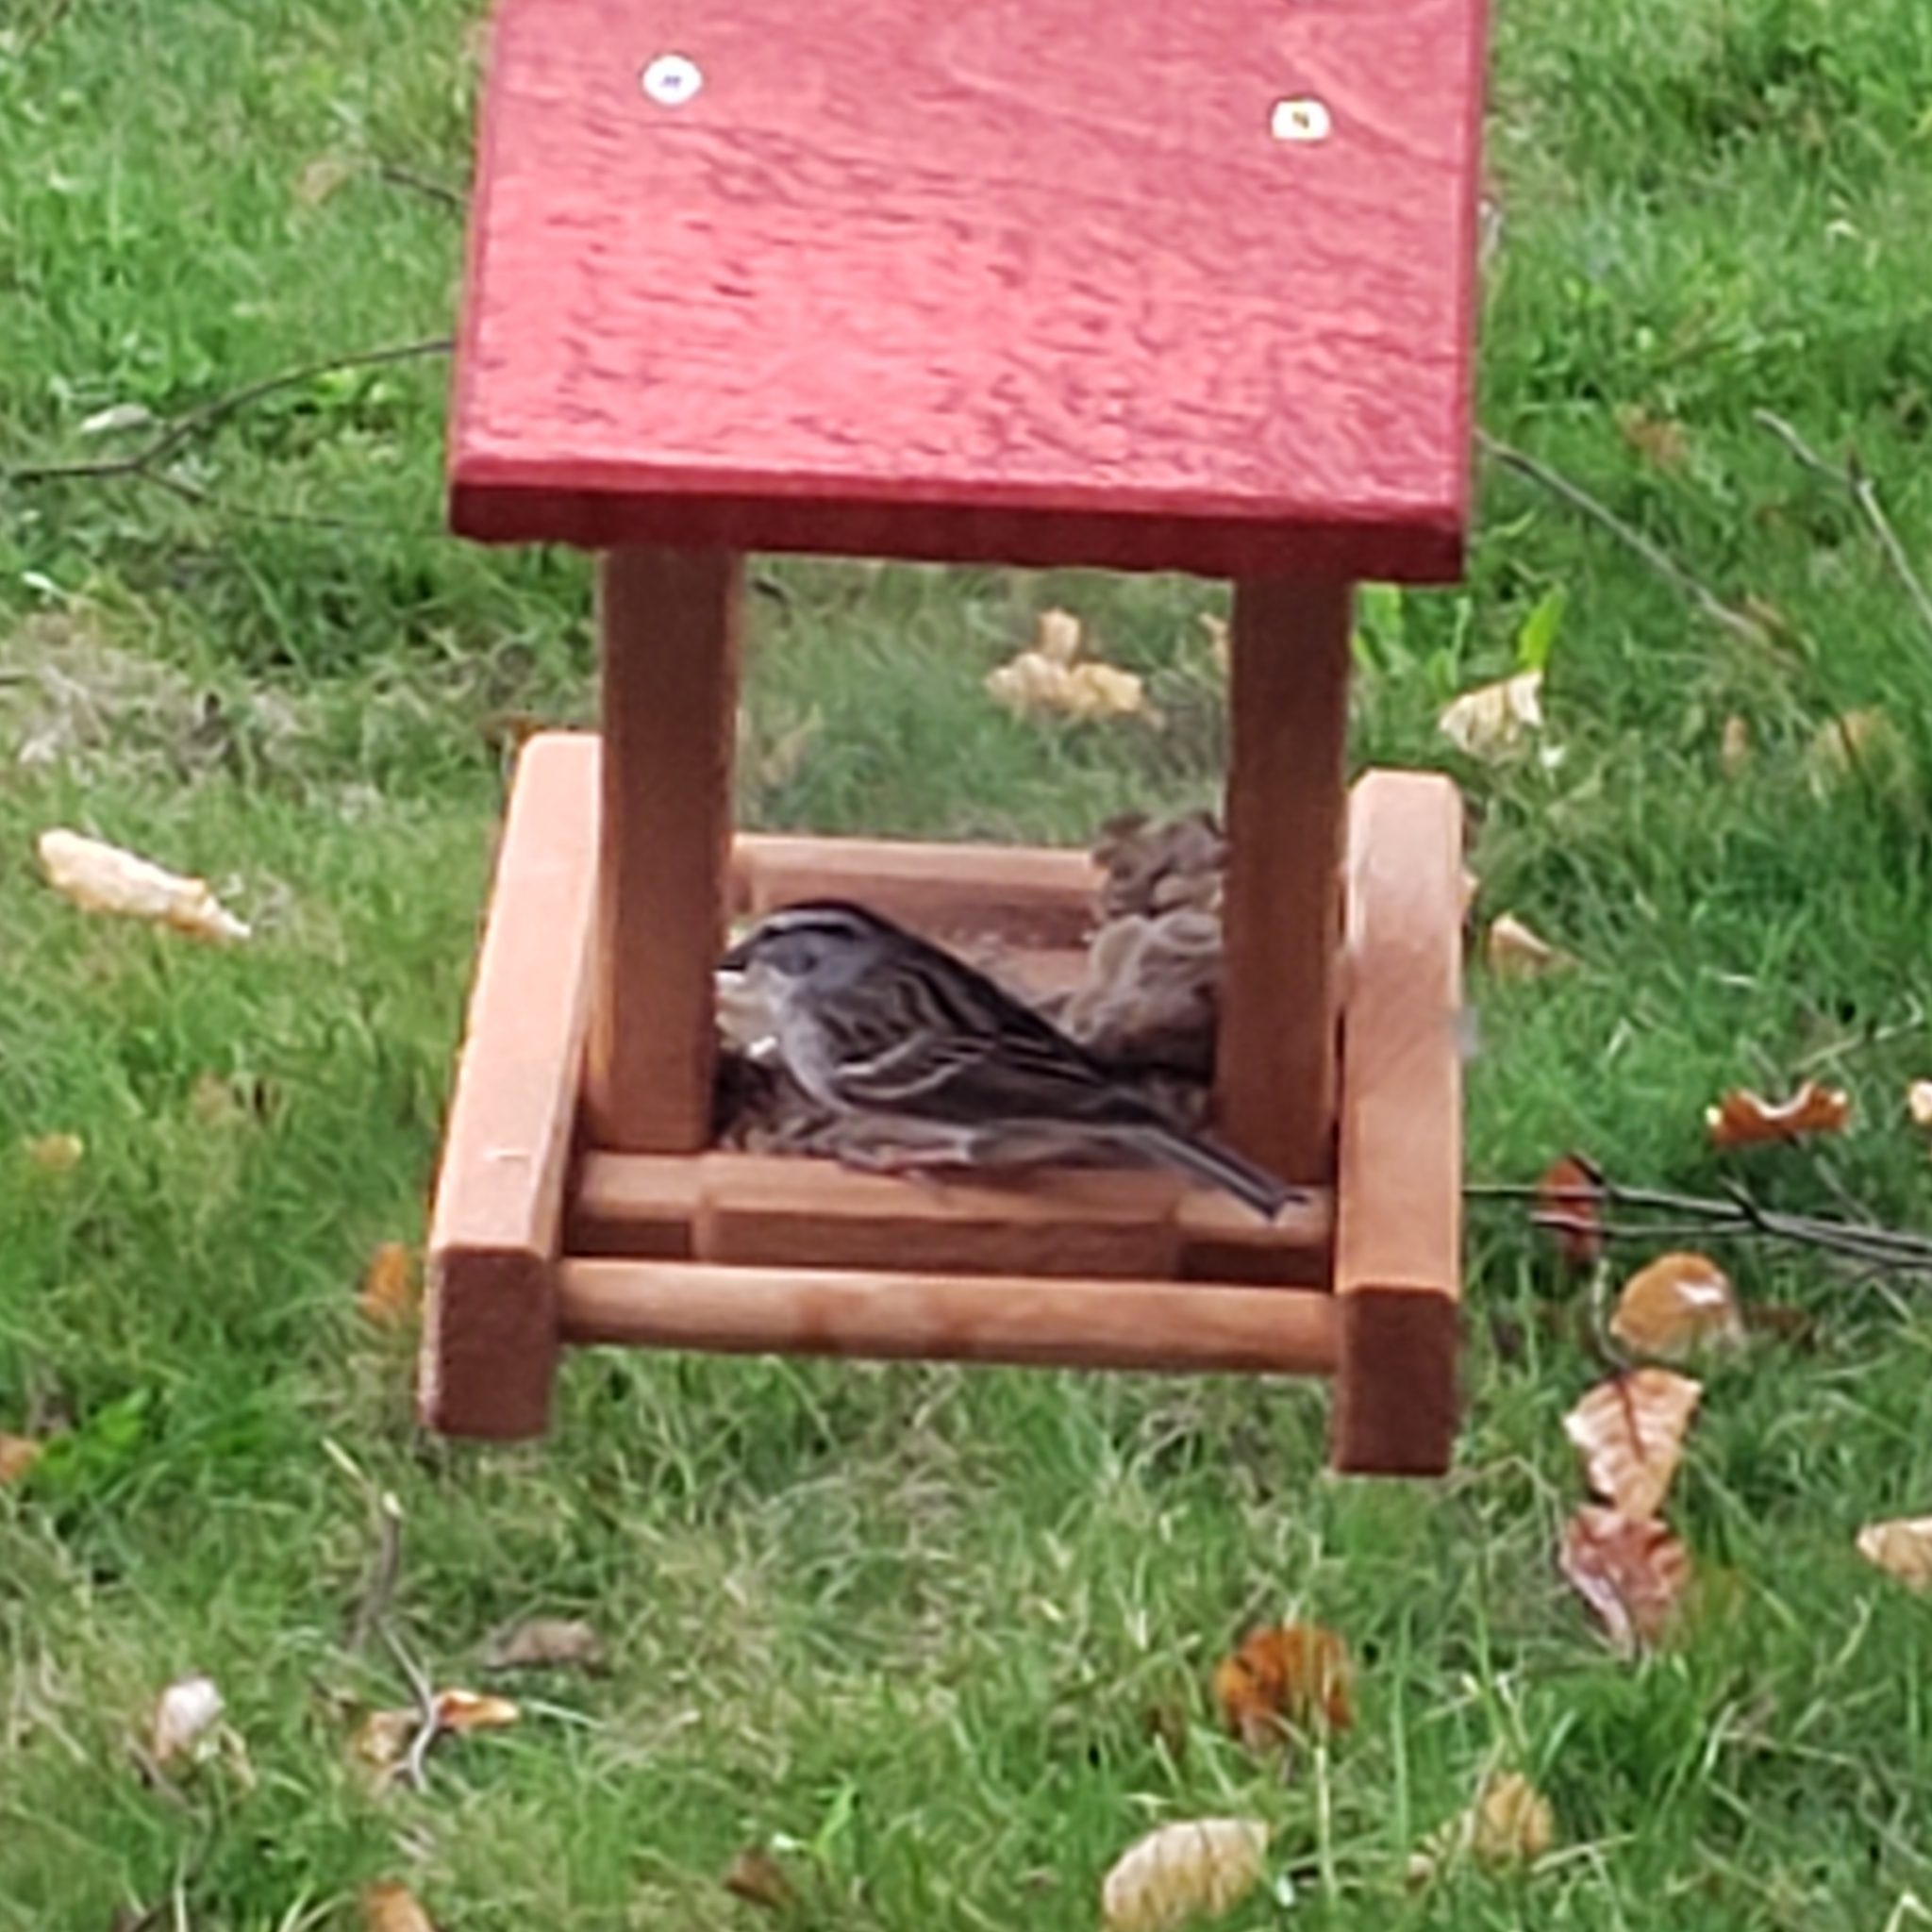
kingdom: Animalia
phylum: Chordata
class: Aves
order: Passeriformes
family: Passerellidae
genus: Spizella
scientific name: Spizella passerina
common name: Chipping sparrow
